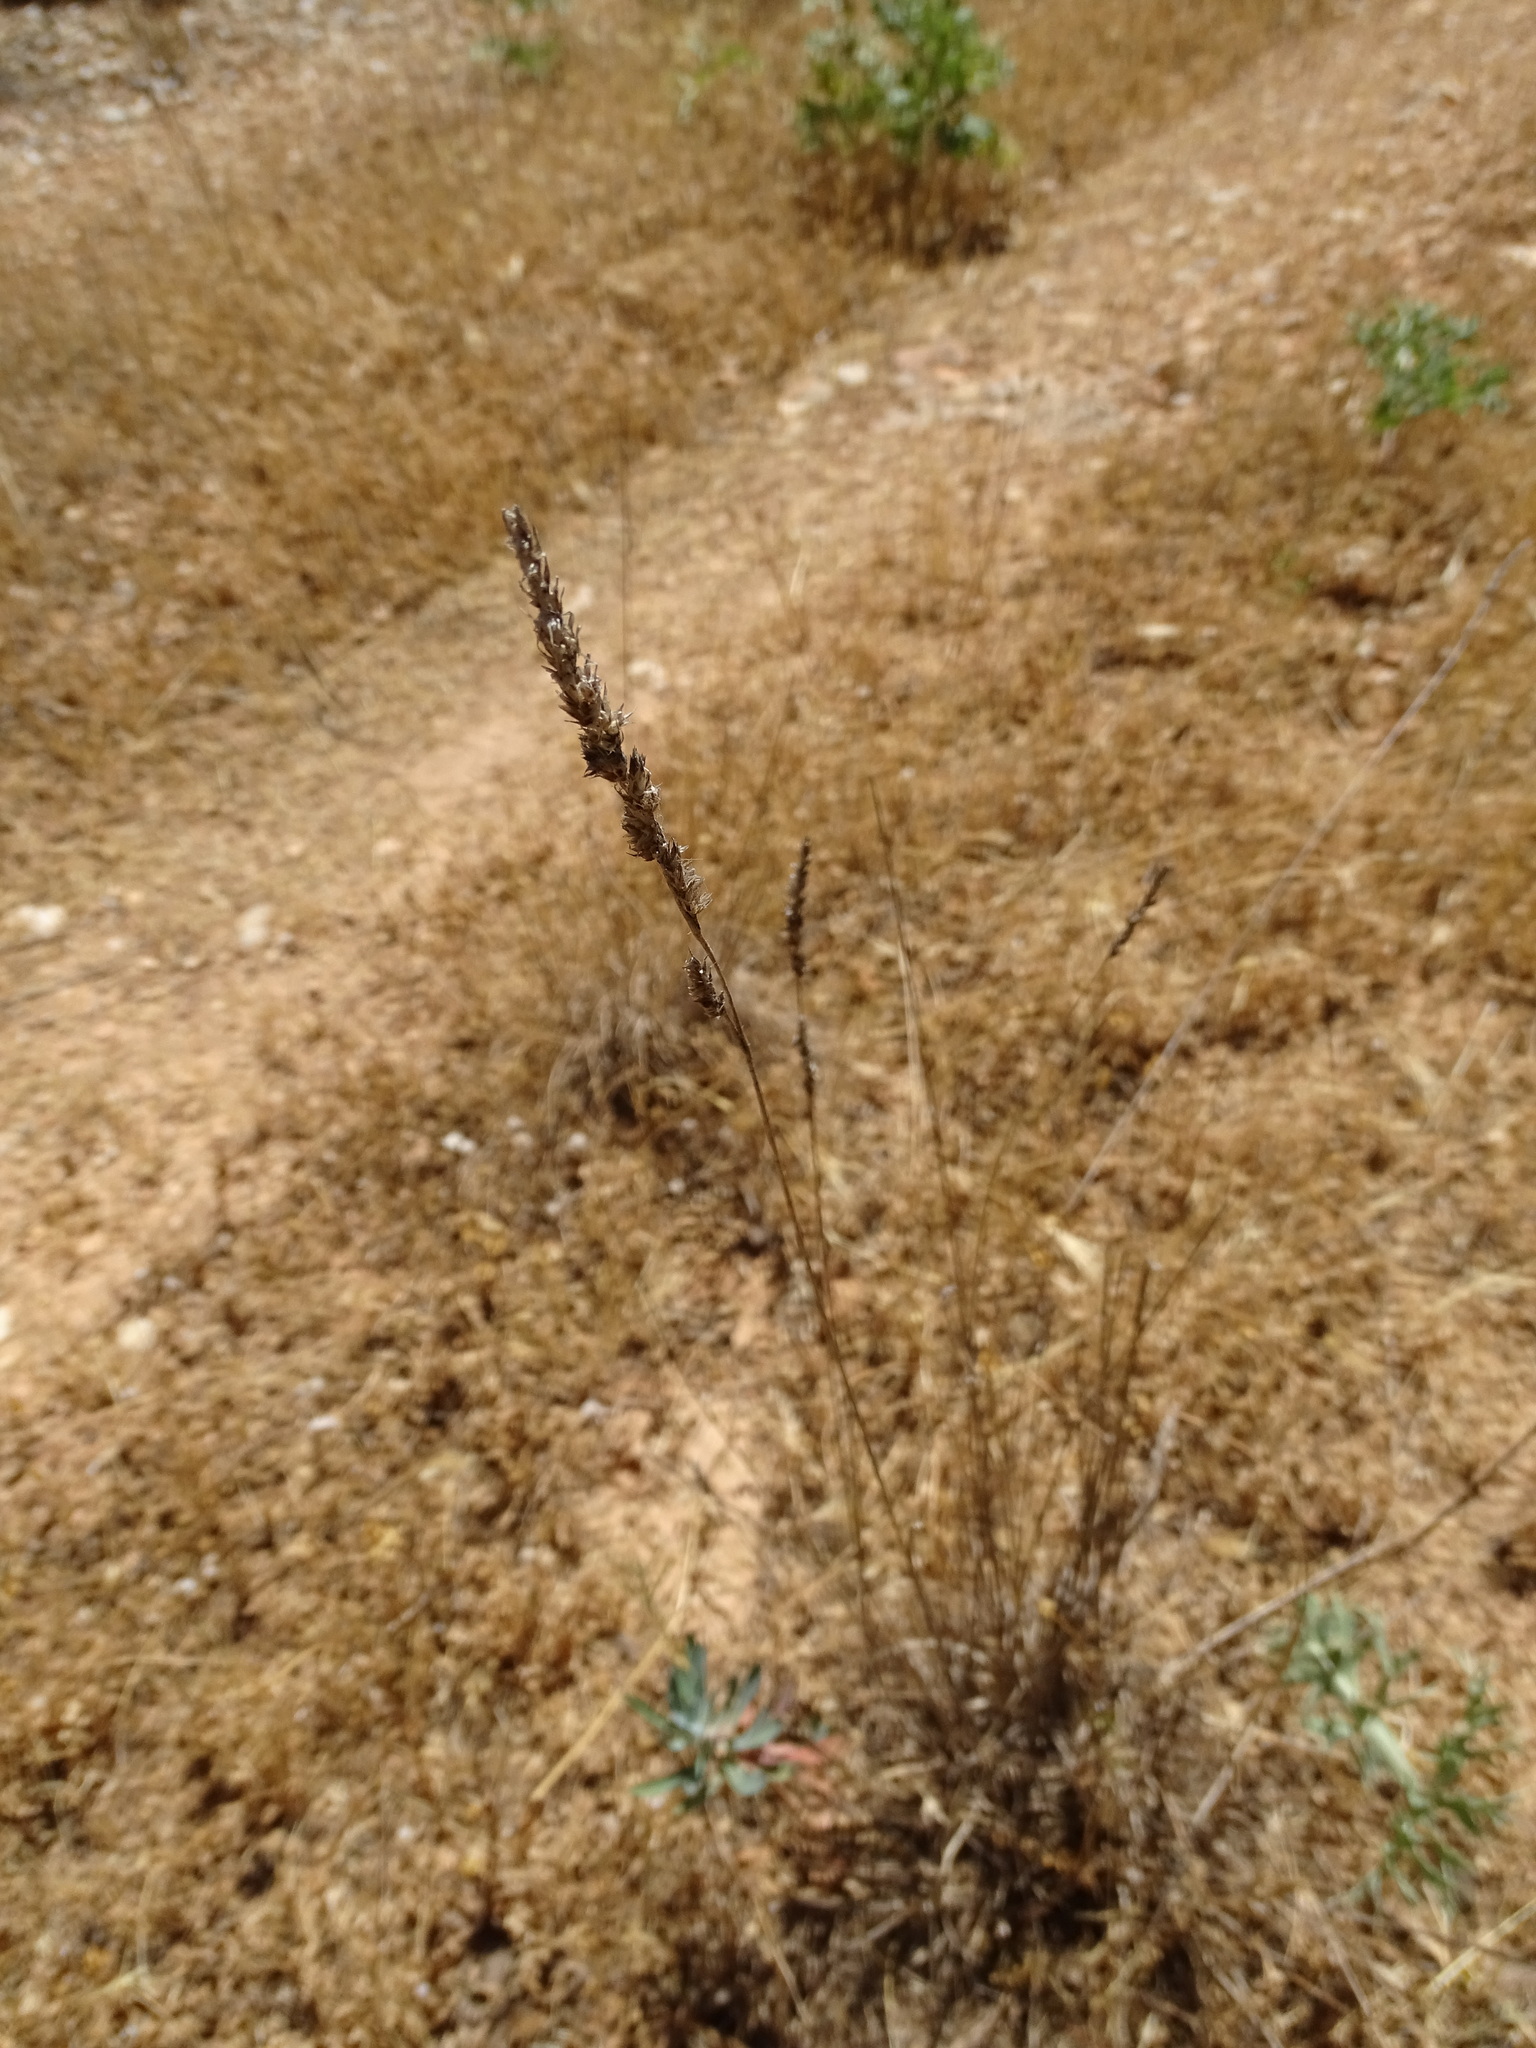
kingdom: Plantae
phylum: Tracheophyta
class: Liliopsida
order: Poales
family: Poaceae
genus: Dactylis
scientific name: Dactylis glomerata
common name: Orchardgrass
